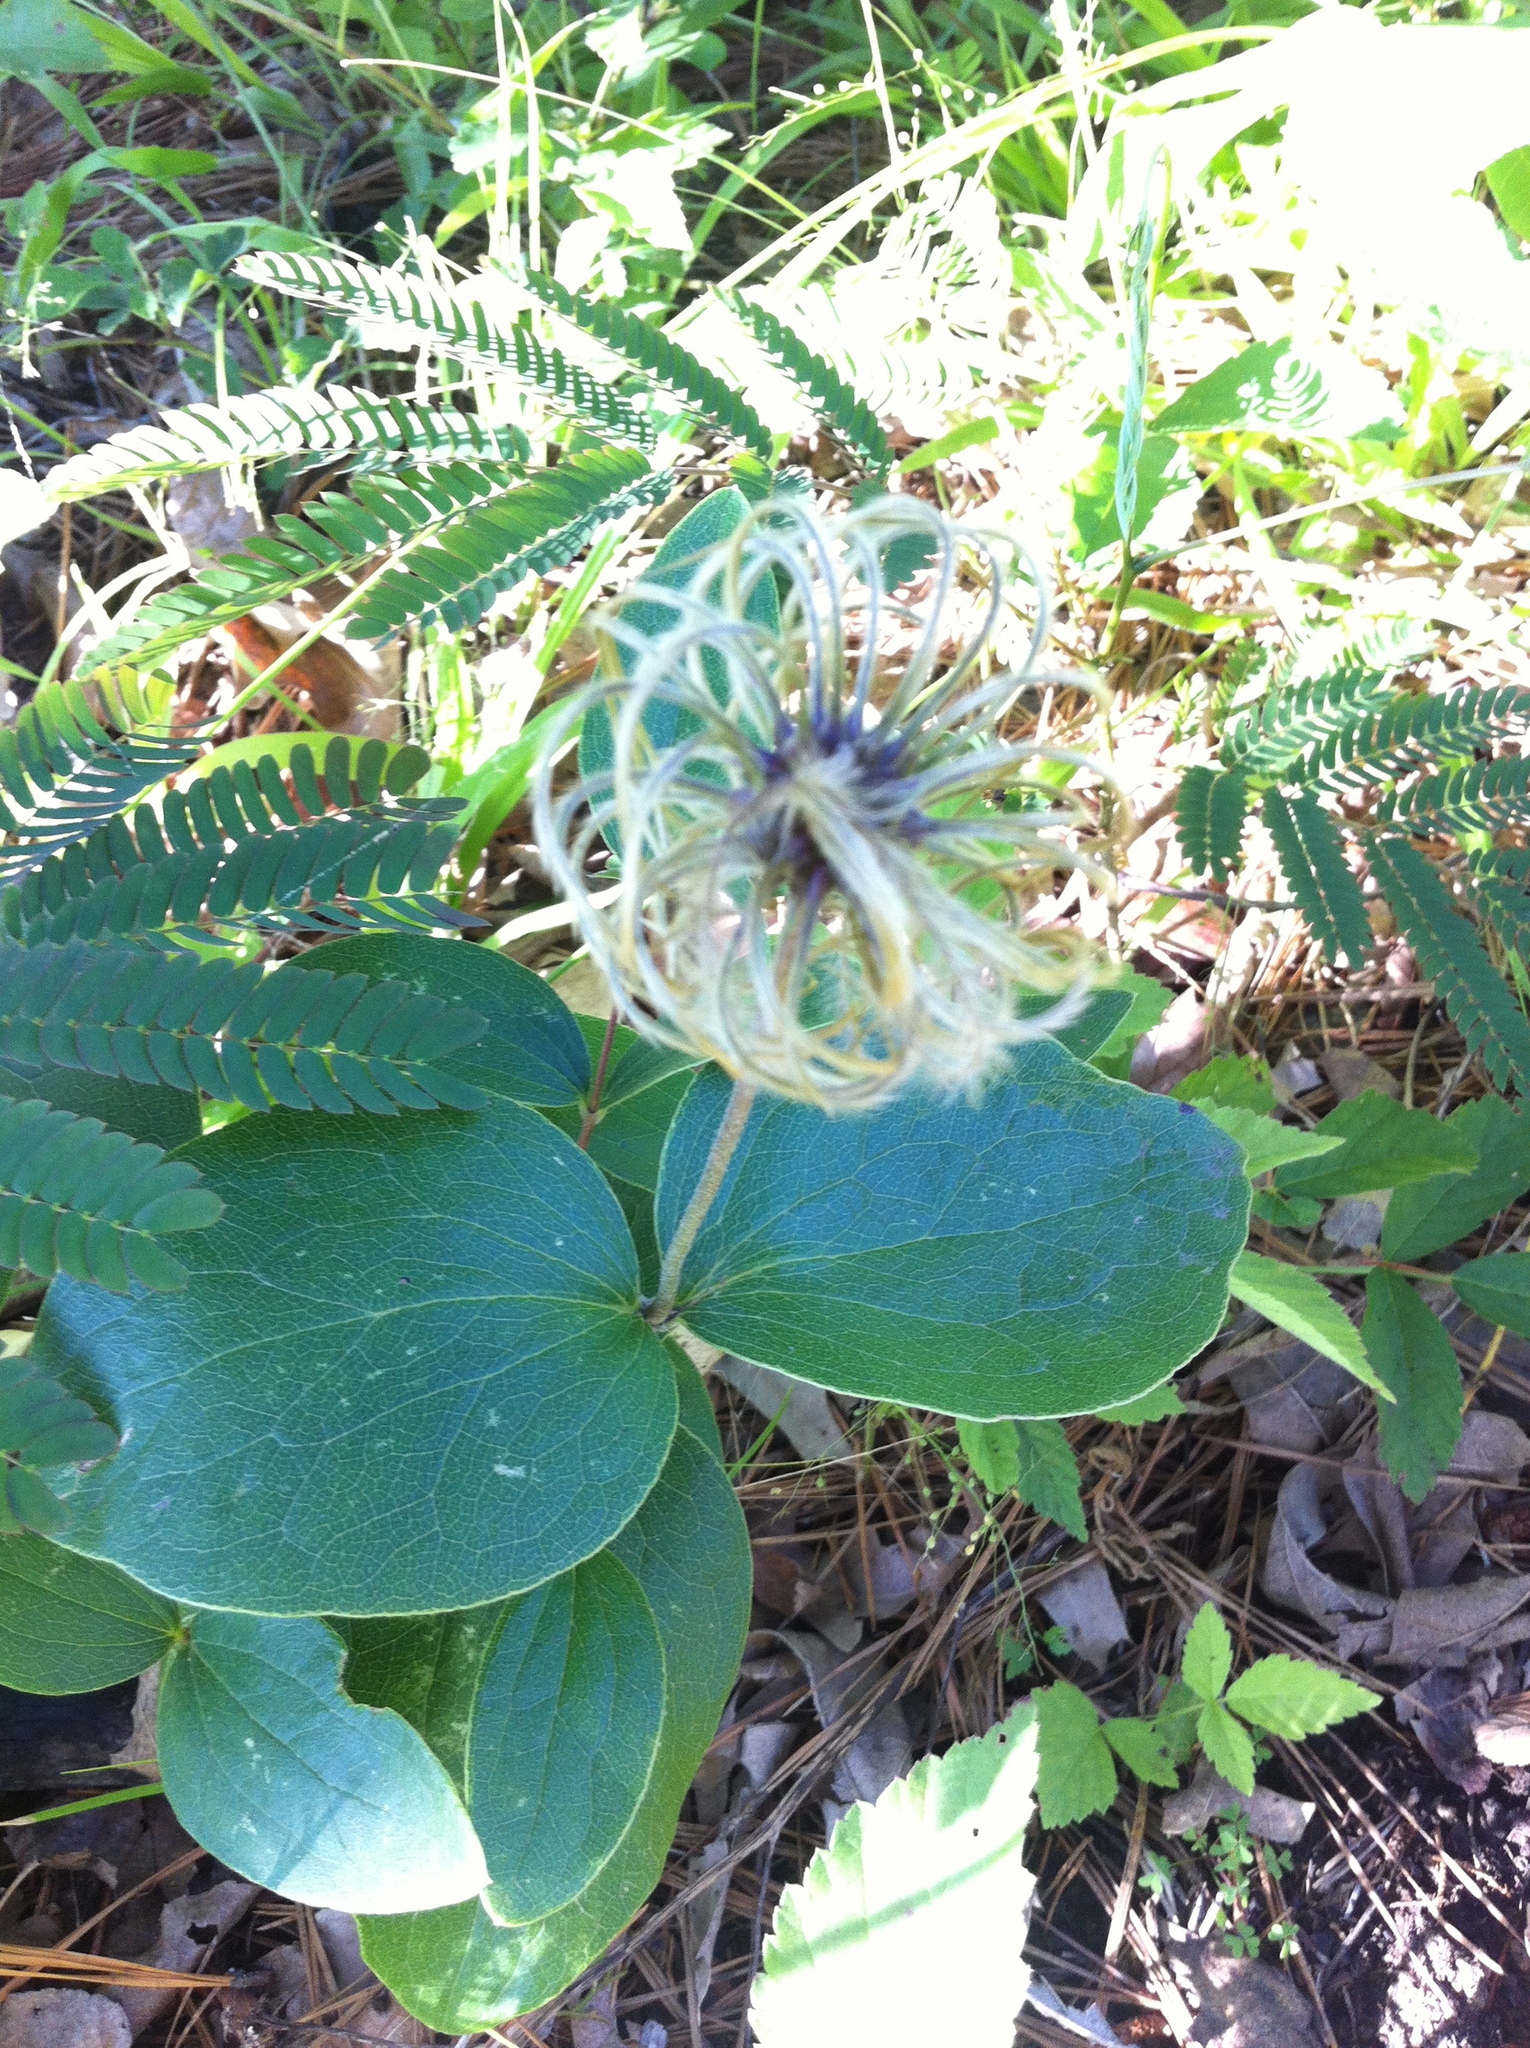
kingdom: Plantae
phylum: Tracheophyta
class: Magnoliopsida
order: Ranunculales
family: Ranunculaceae
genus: Clematis
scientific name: Clematis ochroleuca
